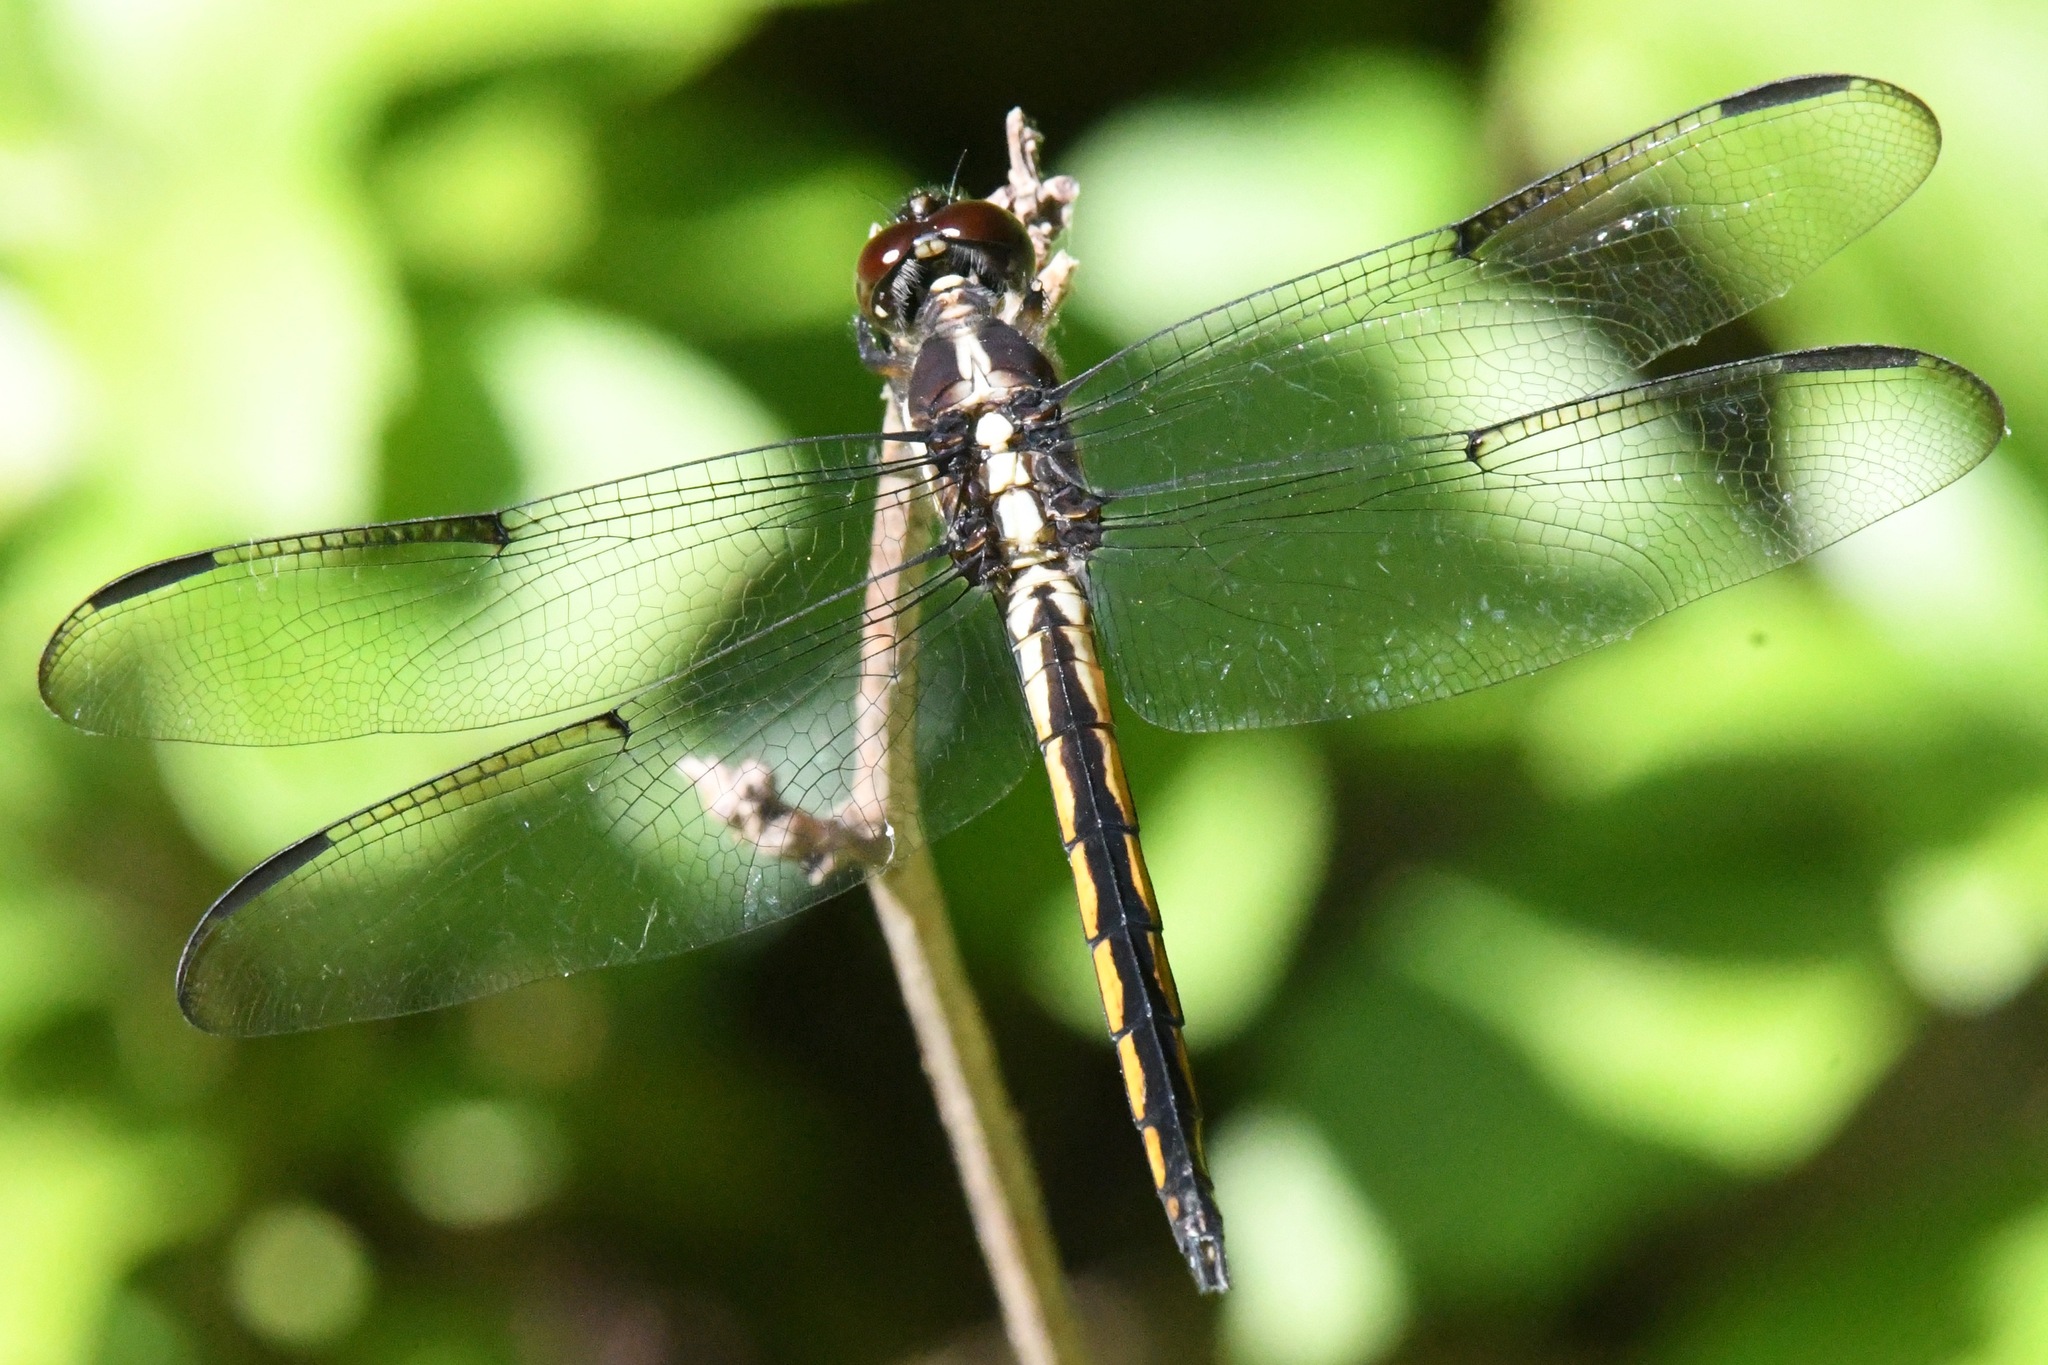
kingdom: Animalia
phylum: Arthropoda
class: Insecta
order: Odonata
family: Libellulidae
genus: Libellula
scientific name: Libellula axilena
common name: Bar-winged skimmer
